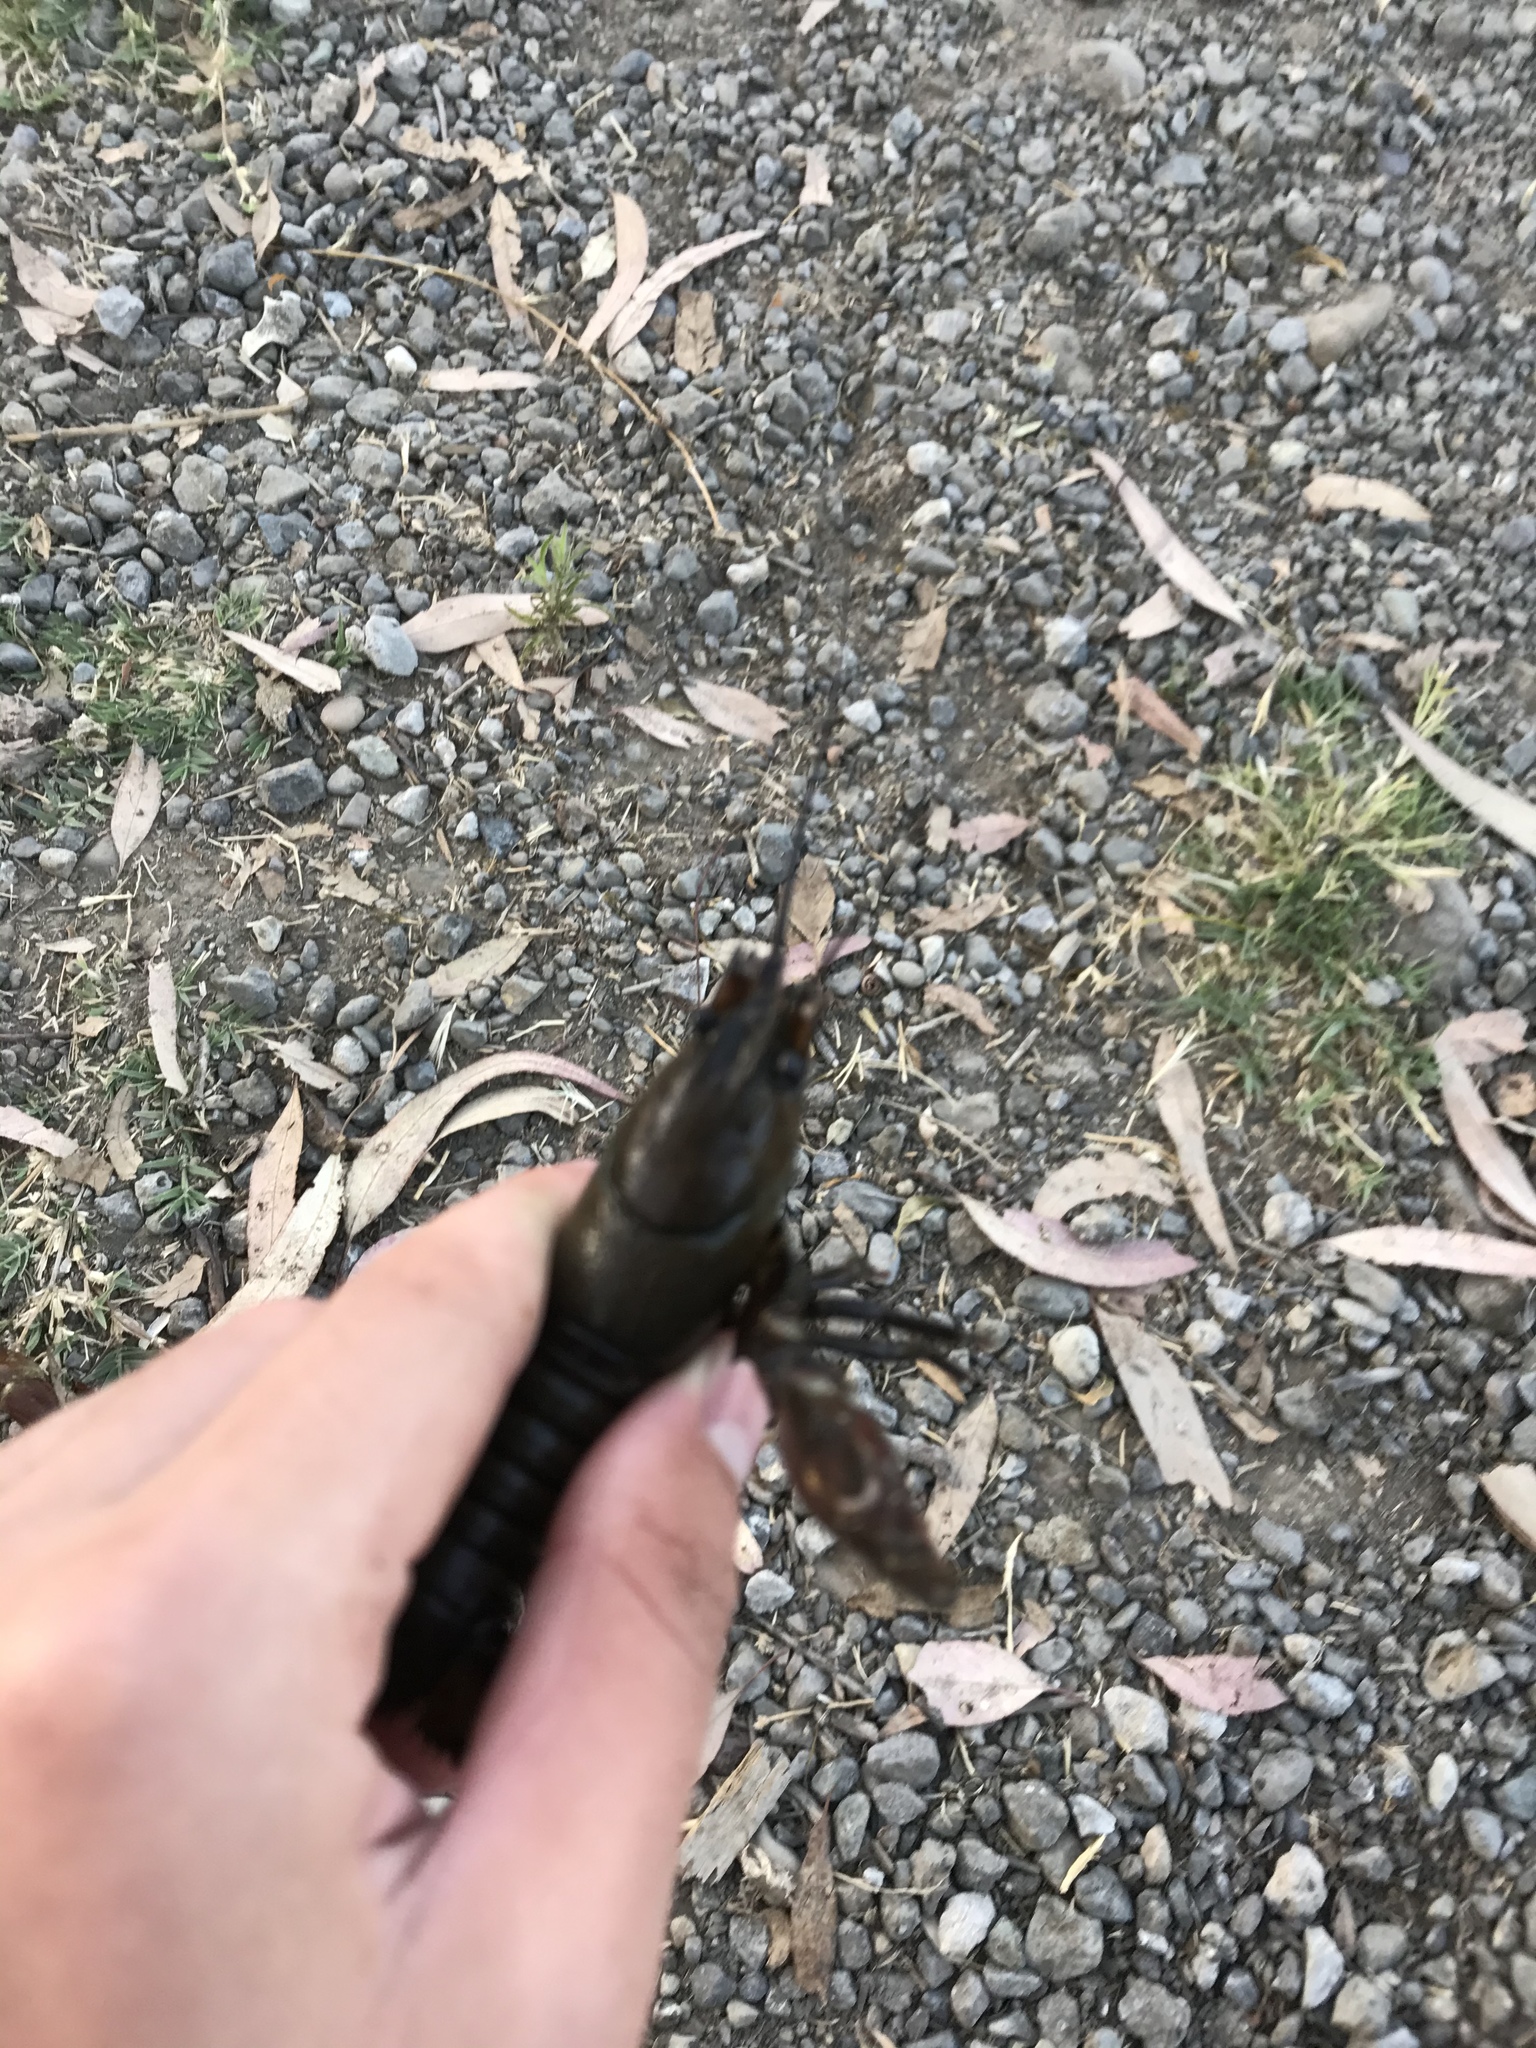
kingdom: Animalia
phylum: Arthropoda
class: Malacostraca
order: Decapoda
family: Astacidae
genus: Pacifastacus
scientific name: Pacifastacus leniusculus
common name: Signal crayfish
